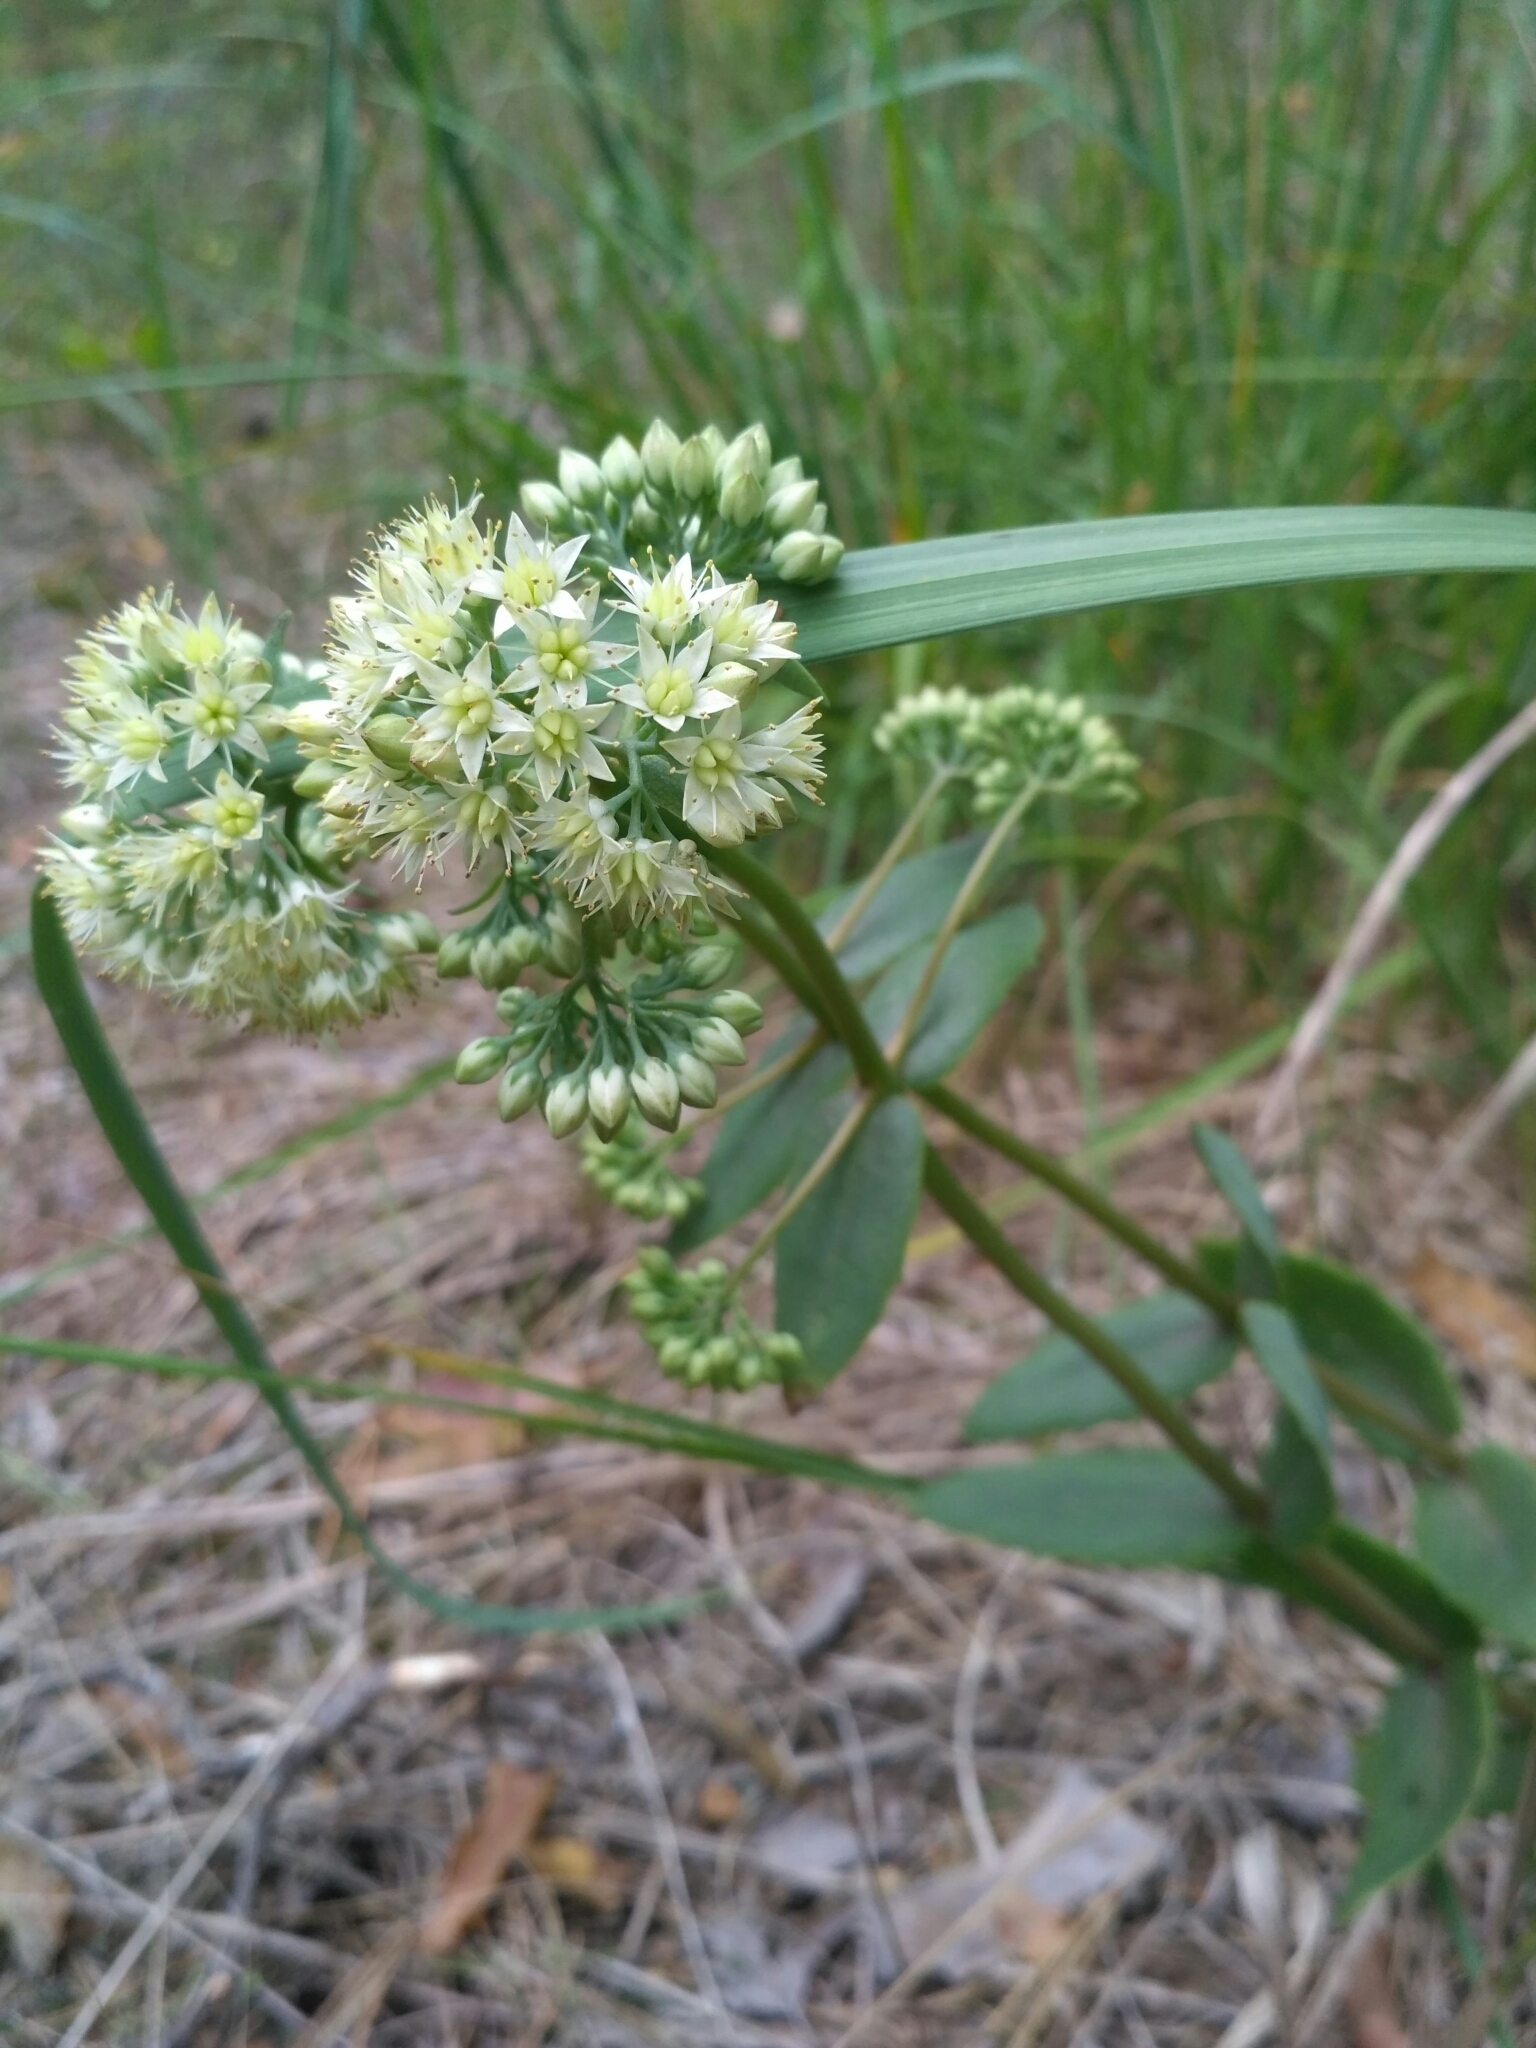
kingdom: Plantae
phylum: Tracheophyta
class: Magnoliopsida
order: Saxifragales
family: Crassulaceae
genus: Hylotelephium
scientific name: Hylotelephium maximum
